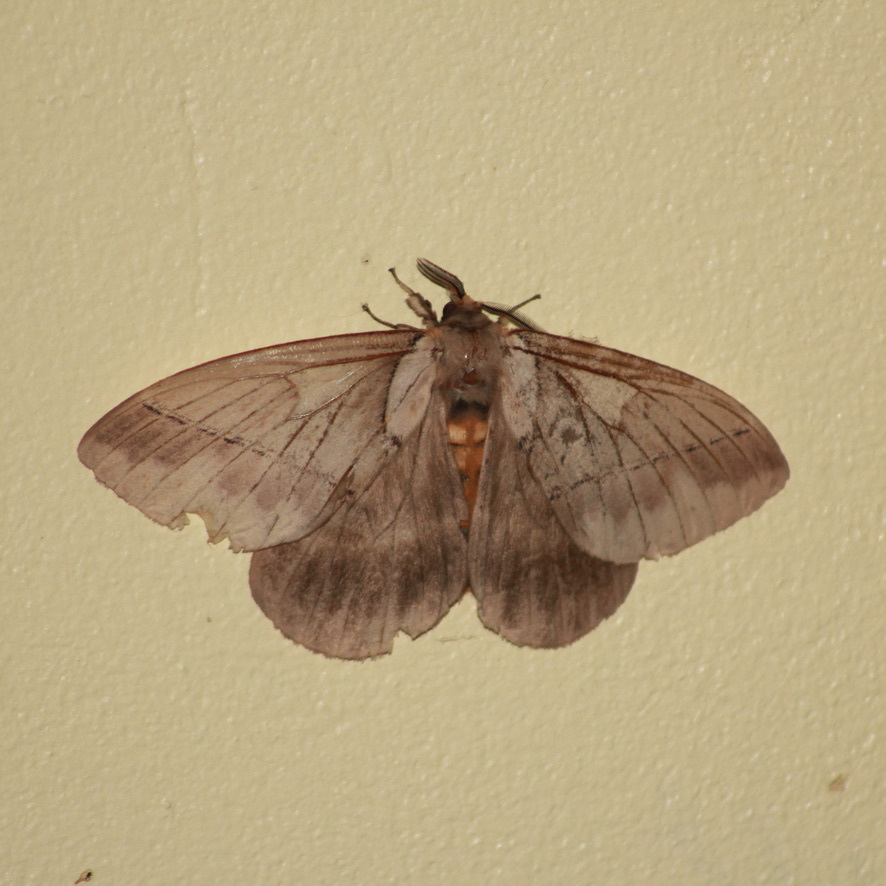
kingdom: Animalia
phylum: Arthropoda
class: Insecta
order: Lepidoptera
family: Saturniidae
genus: Pseudodirphia
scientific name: Pseudodirphia eumedide
